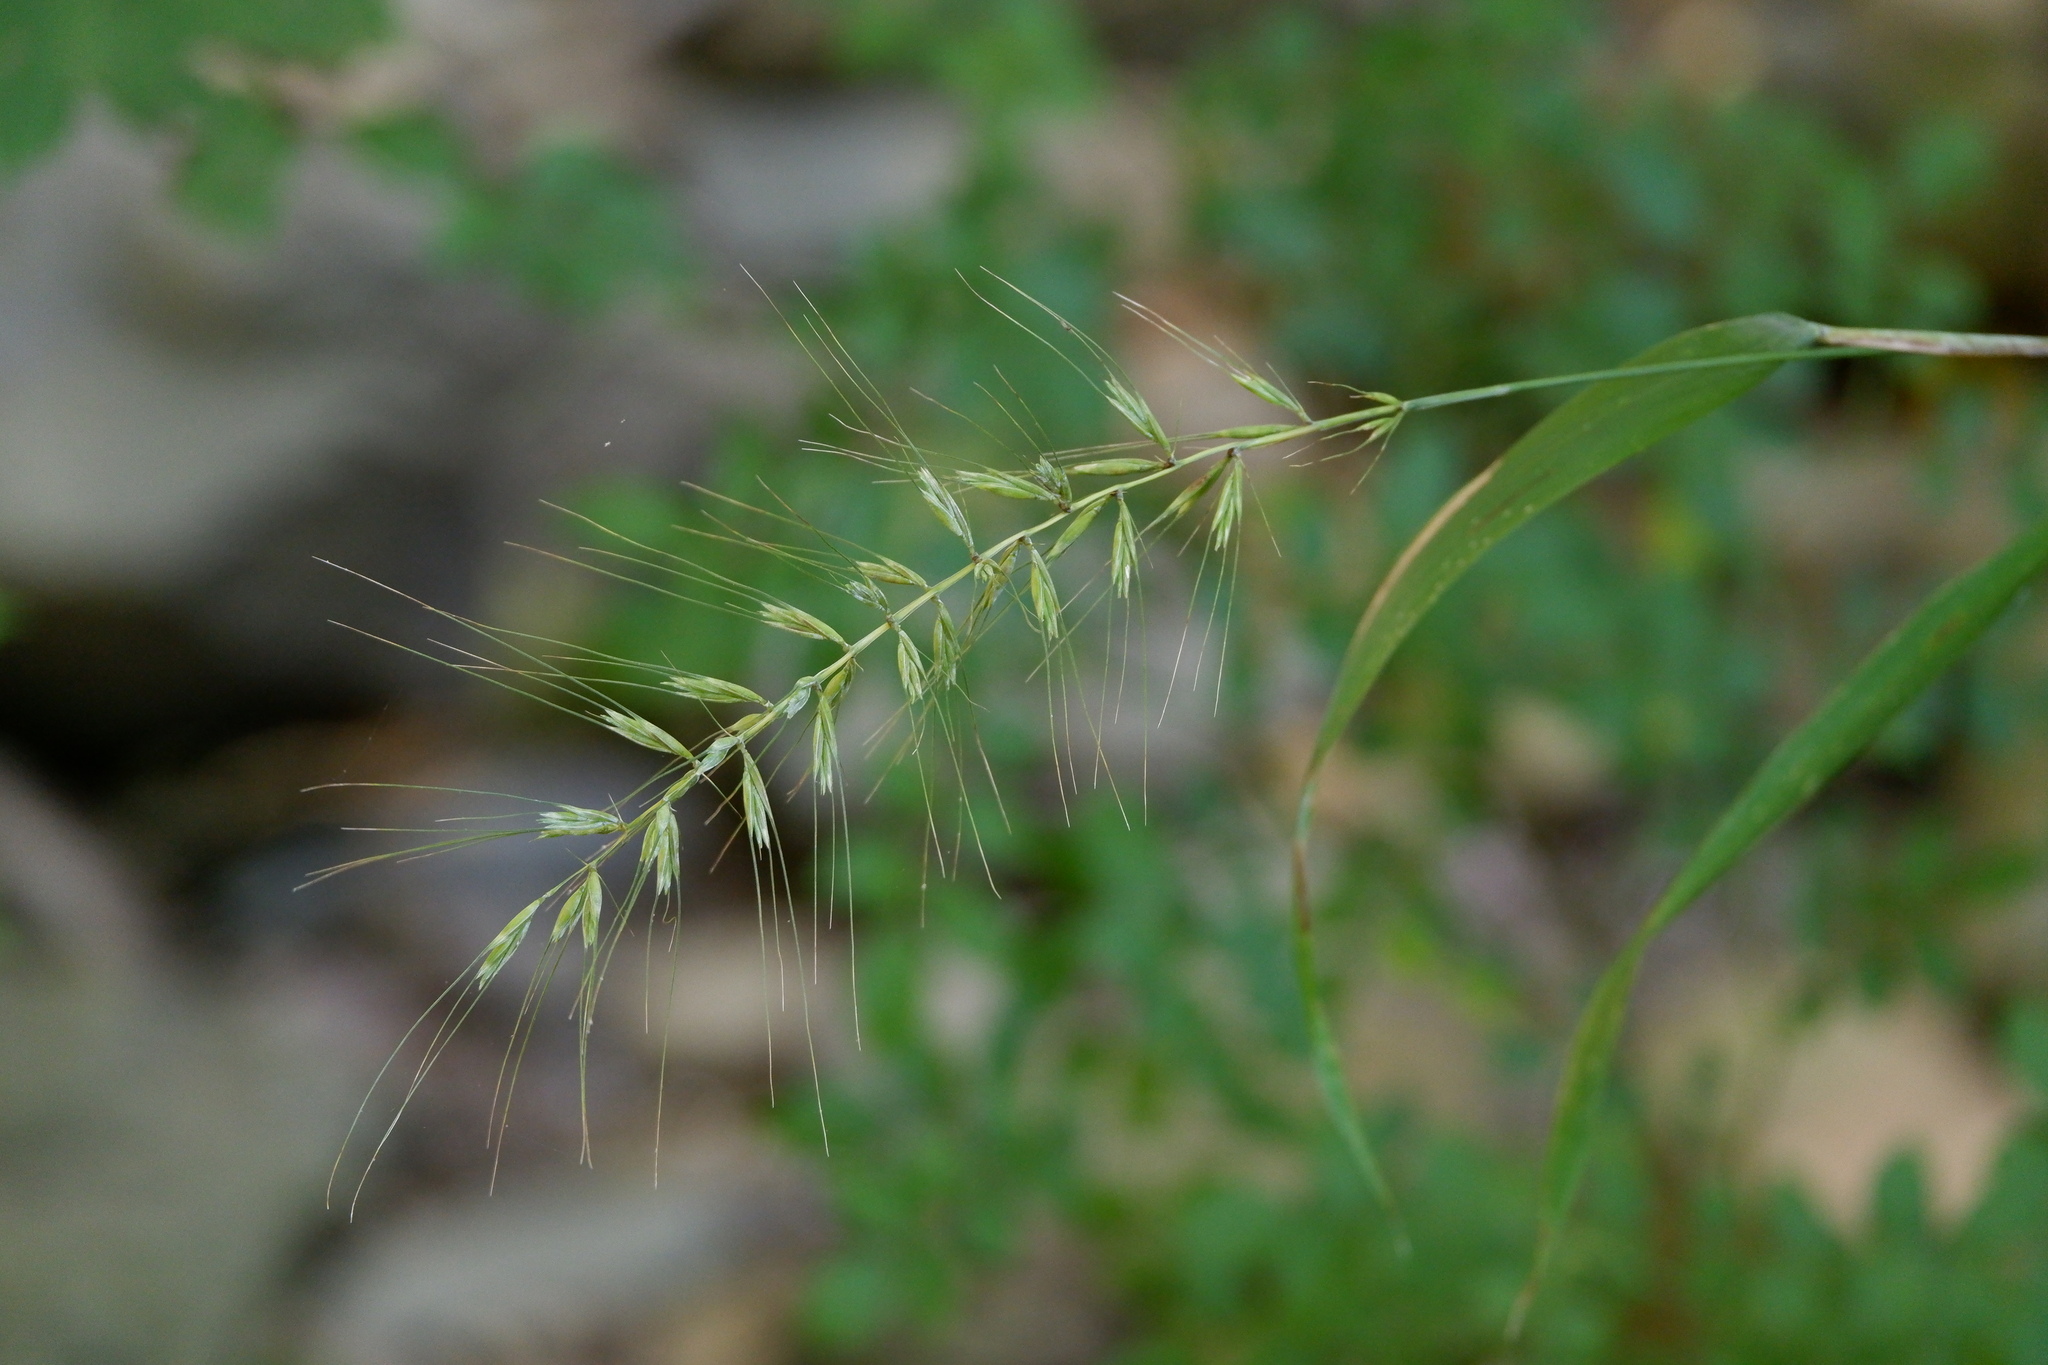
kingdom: Plantae
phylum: Tracheophyta
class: Liliopsida
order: Poales
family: Poaceae
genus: Elymus
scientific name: Elymus hystrix
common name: Bottlebrush grass
